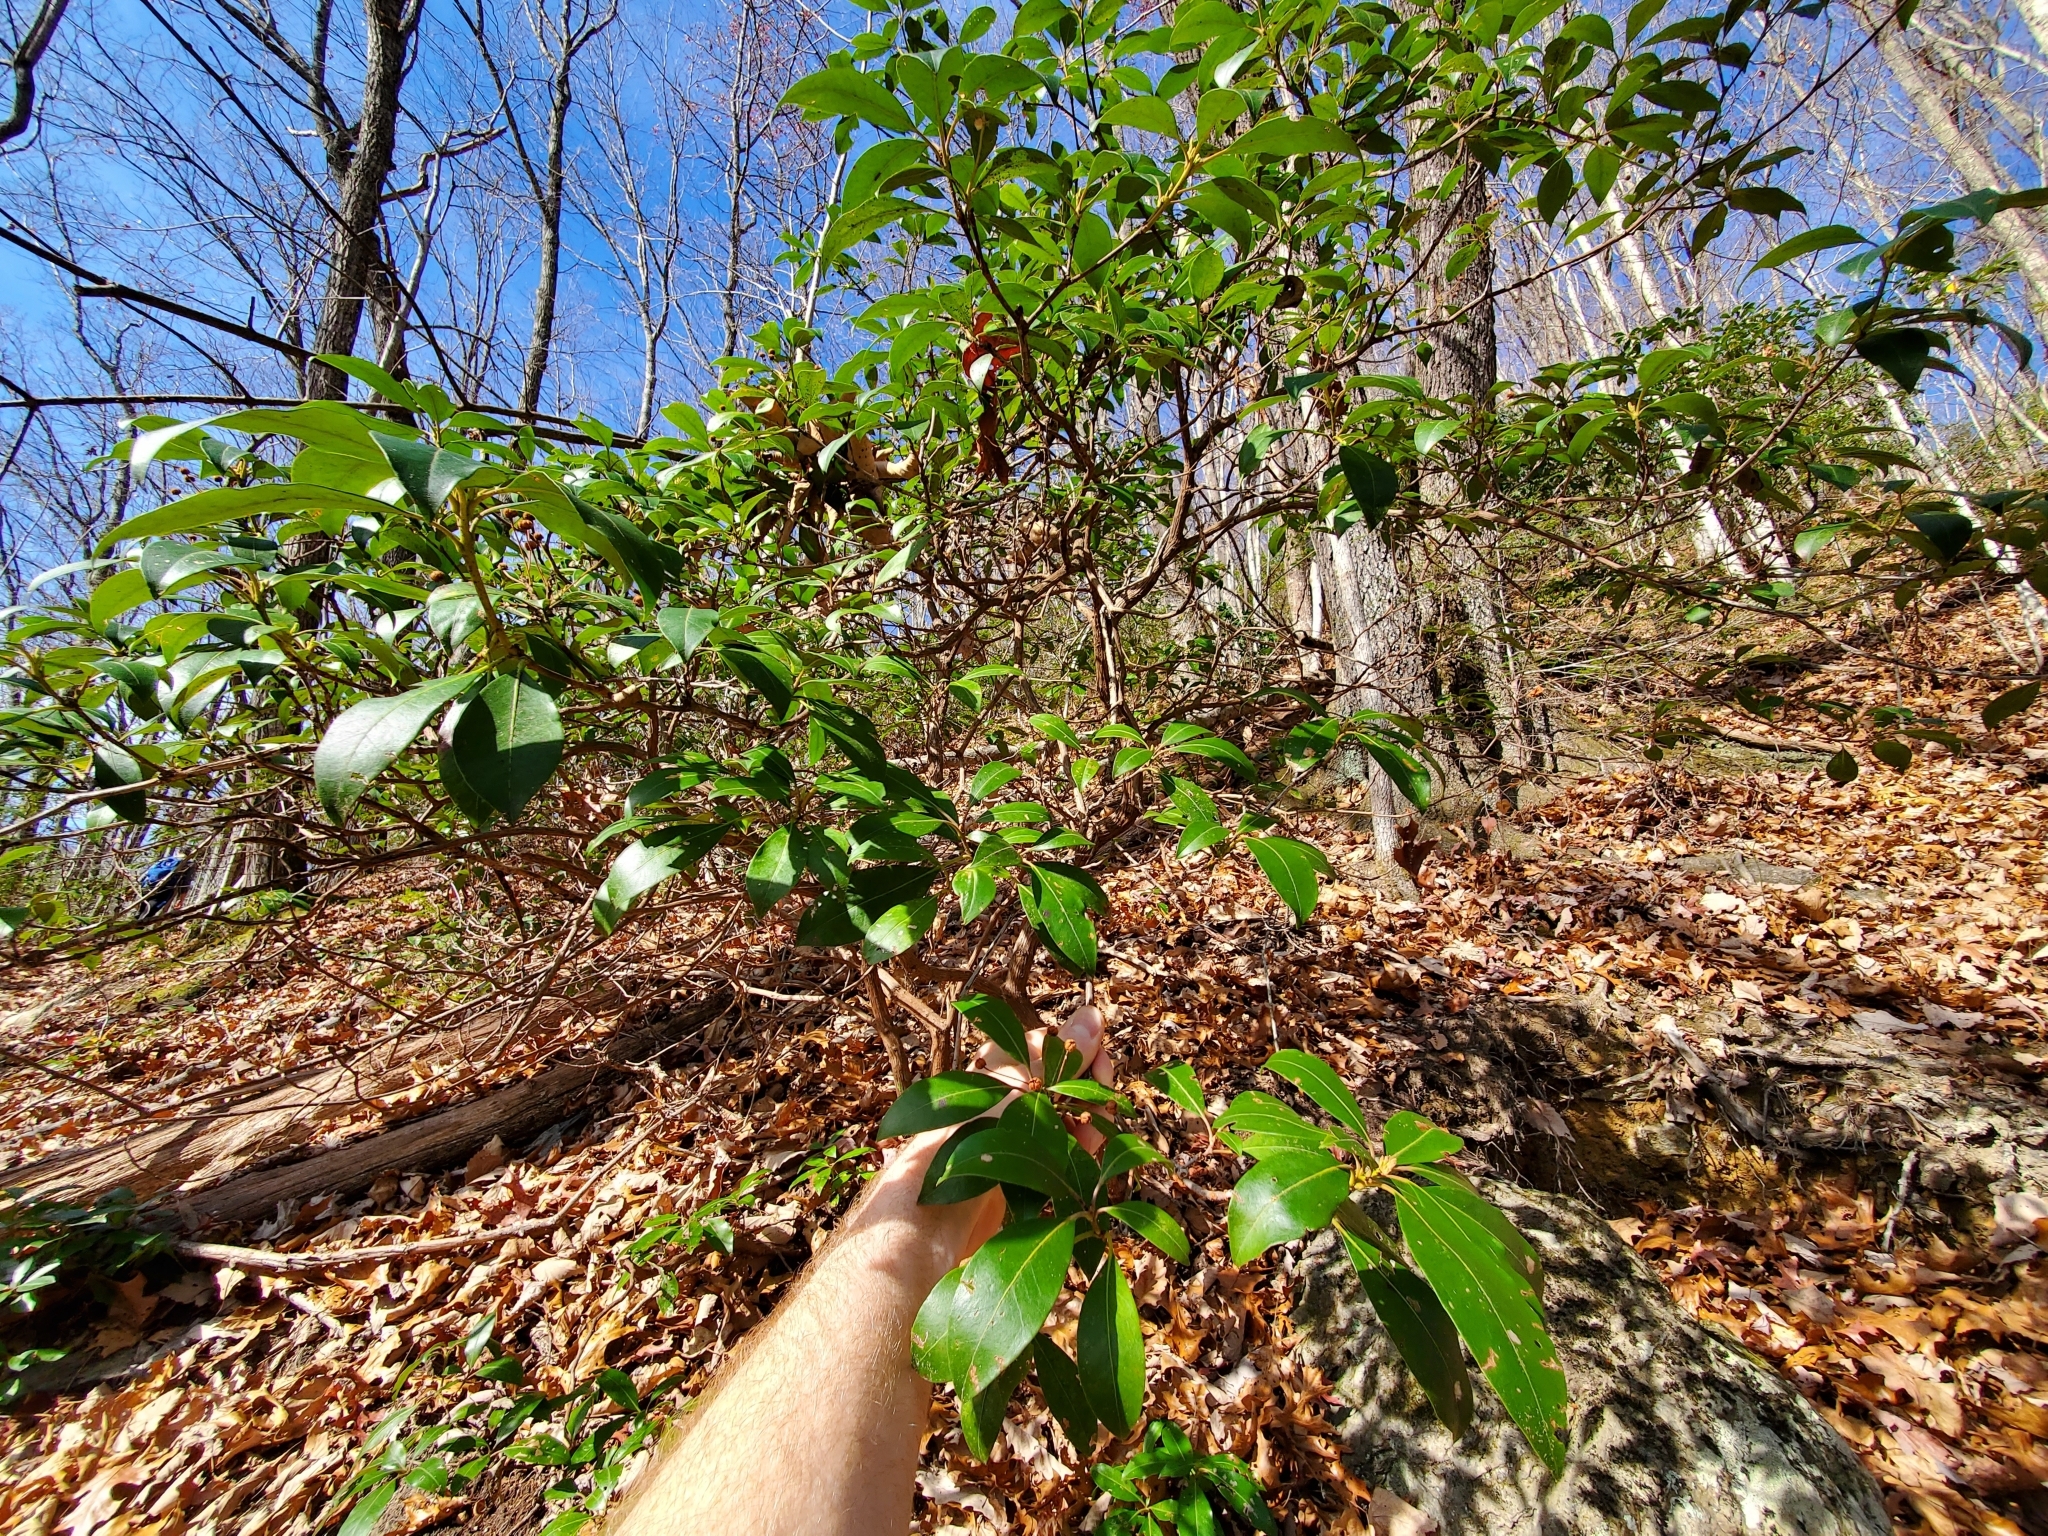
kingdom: Plantae
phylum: Tracheophyta
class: Magnoliopsida
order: Ericales
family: Ericaceae
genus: Kalmia
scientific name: Kalmia latifolia
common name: Mountain-laurel
